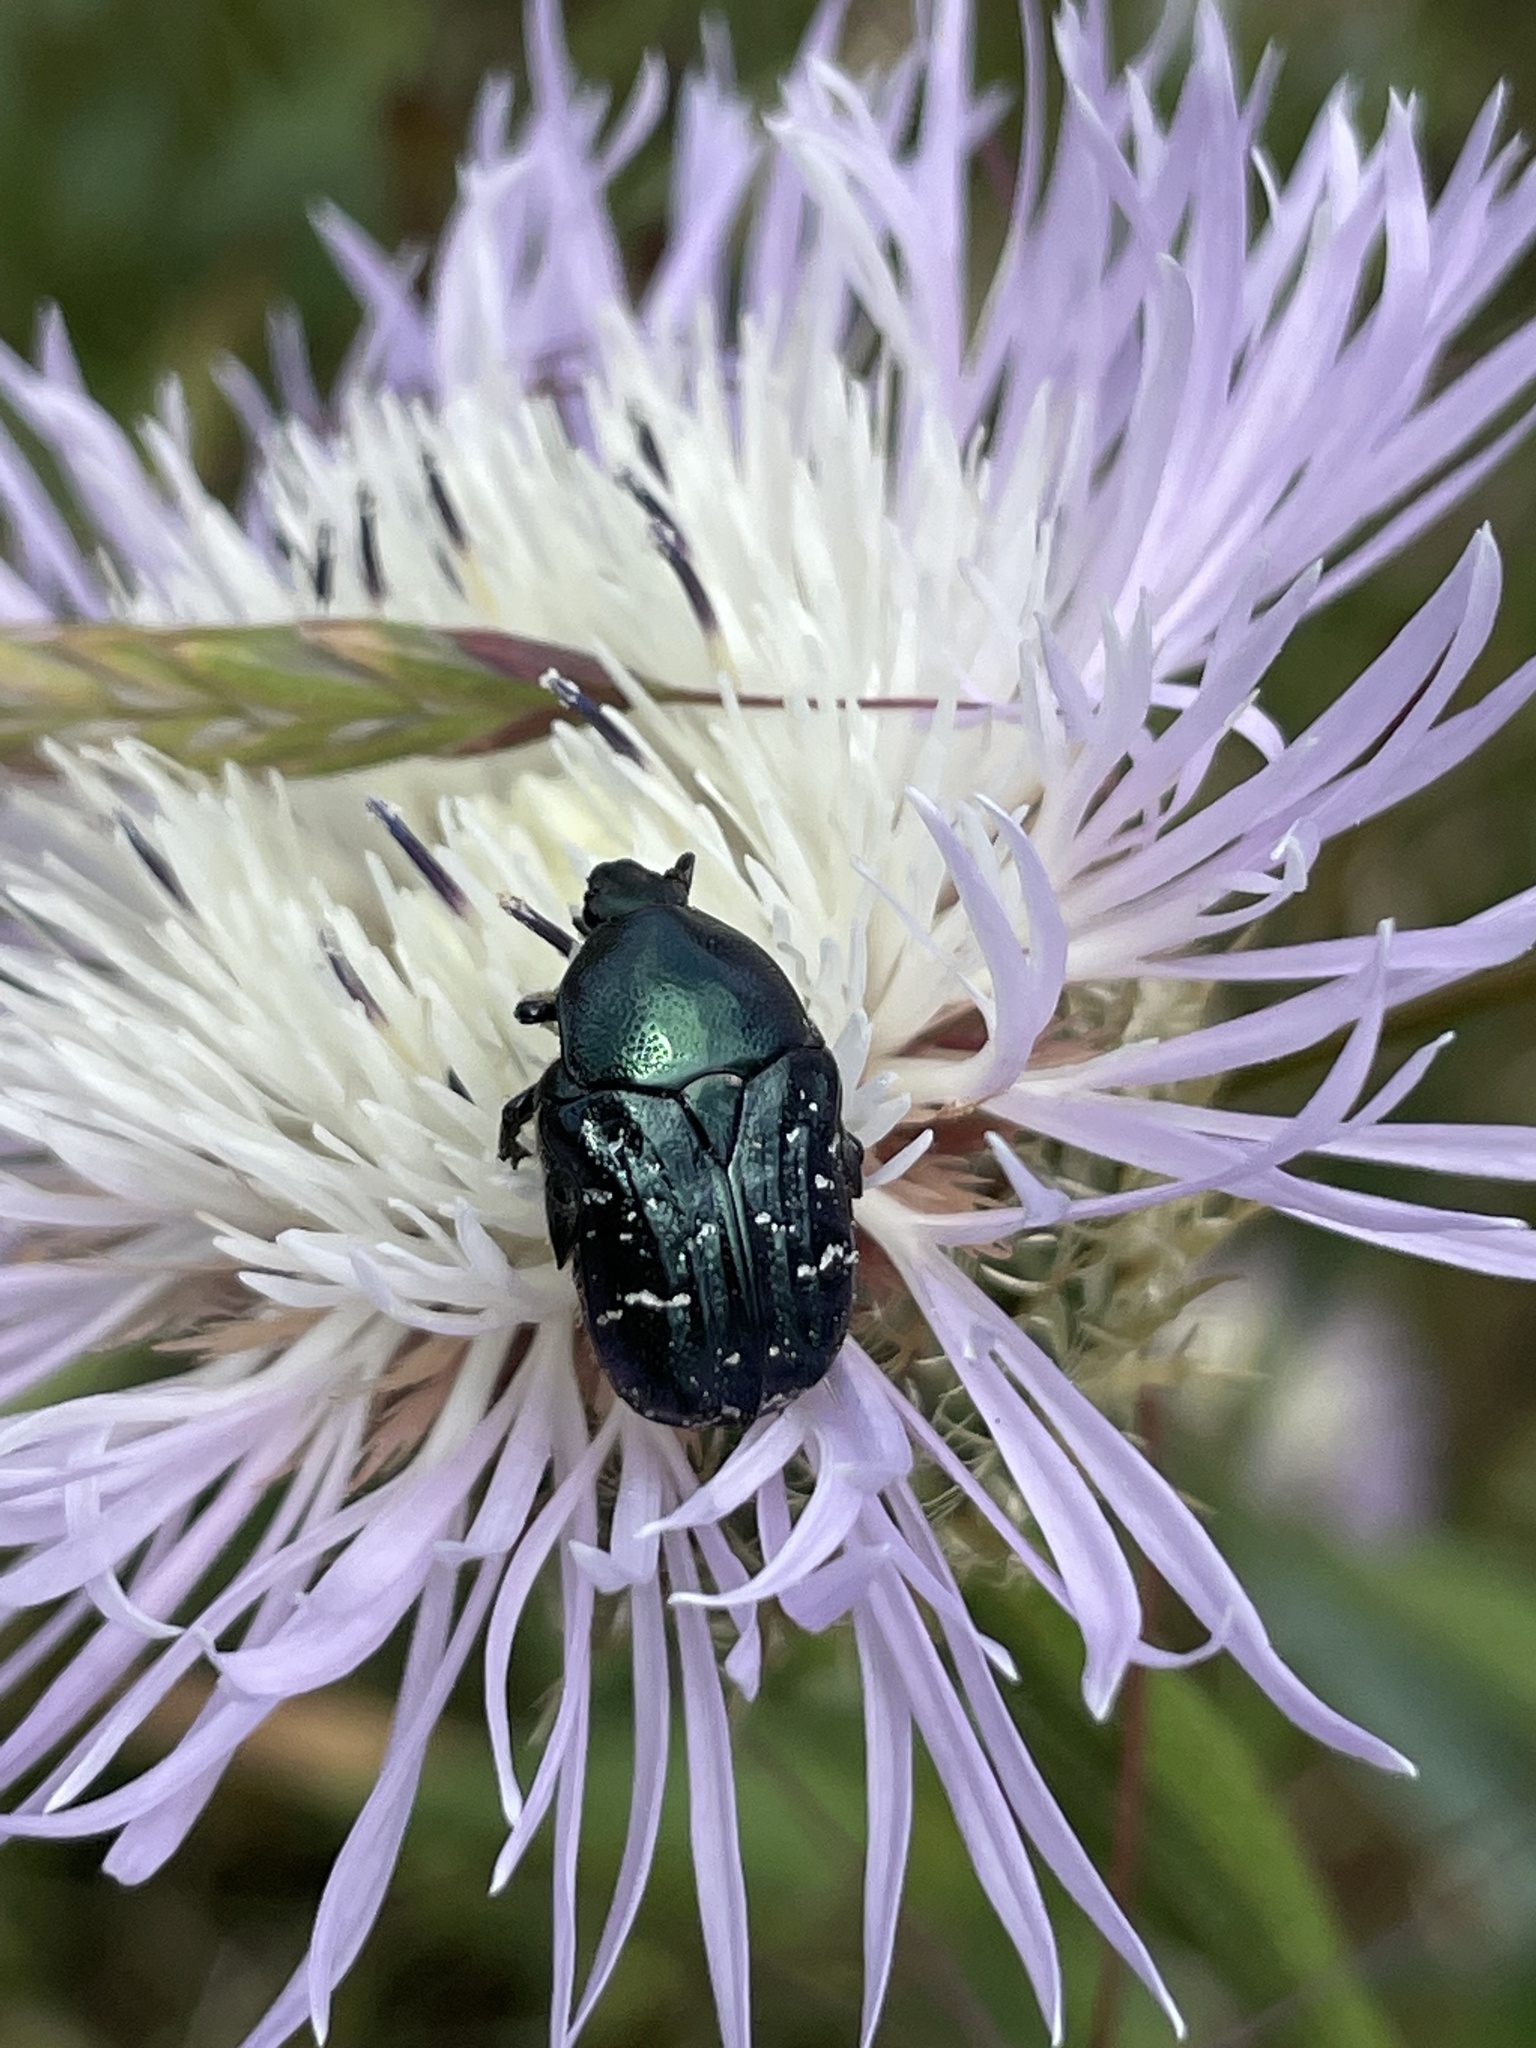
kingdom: Animalia
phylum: Arthropoda
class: Insecta
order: Coleoptera
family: Scarabaeidae
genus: Euphoria
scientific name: Euphoria sepulcralis
